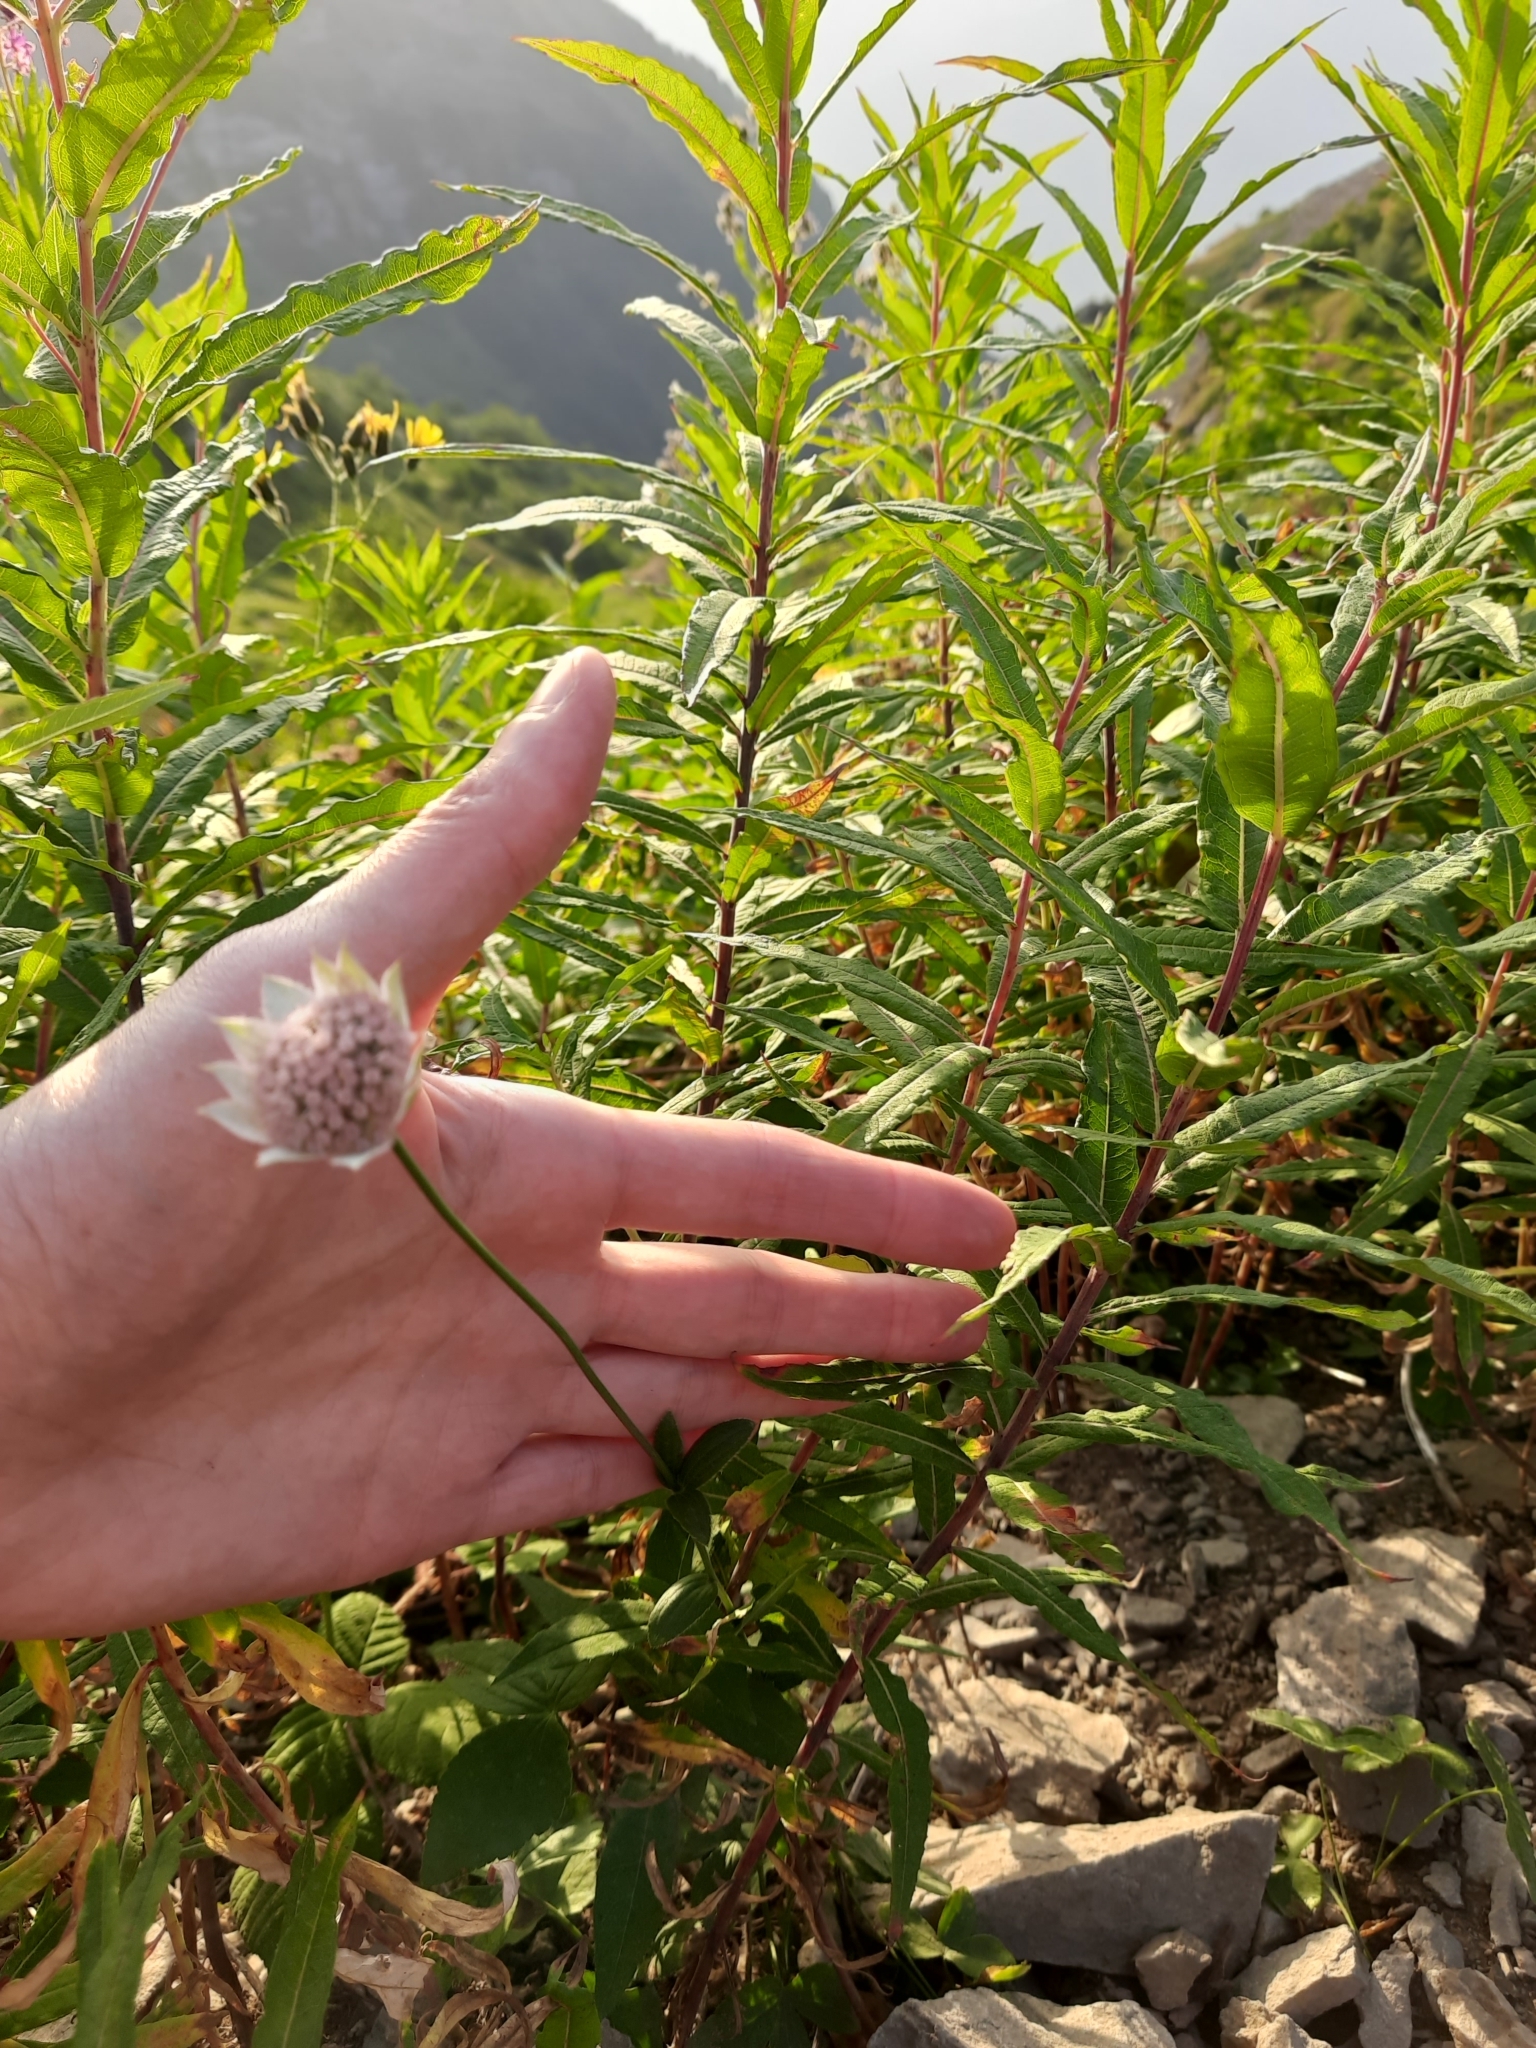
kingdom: Plantae
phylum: Tracheophyta
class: Magnoliopsida
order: Apiales
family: Apiaceae
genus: Astrantia
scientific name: Astrantia maxima
